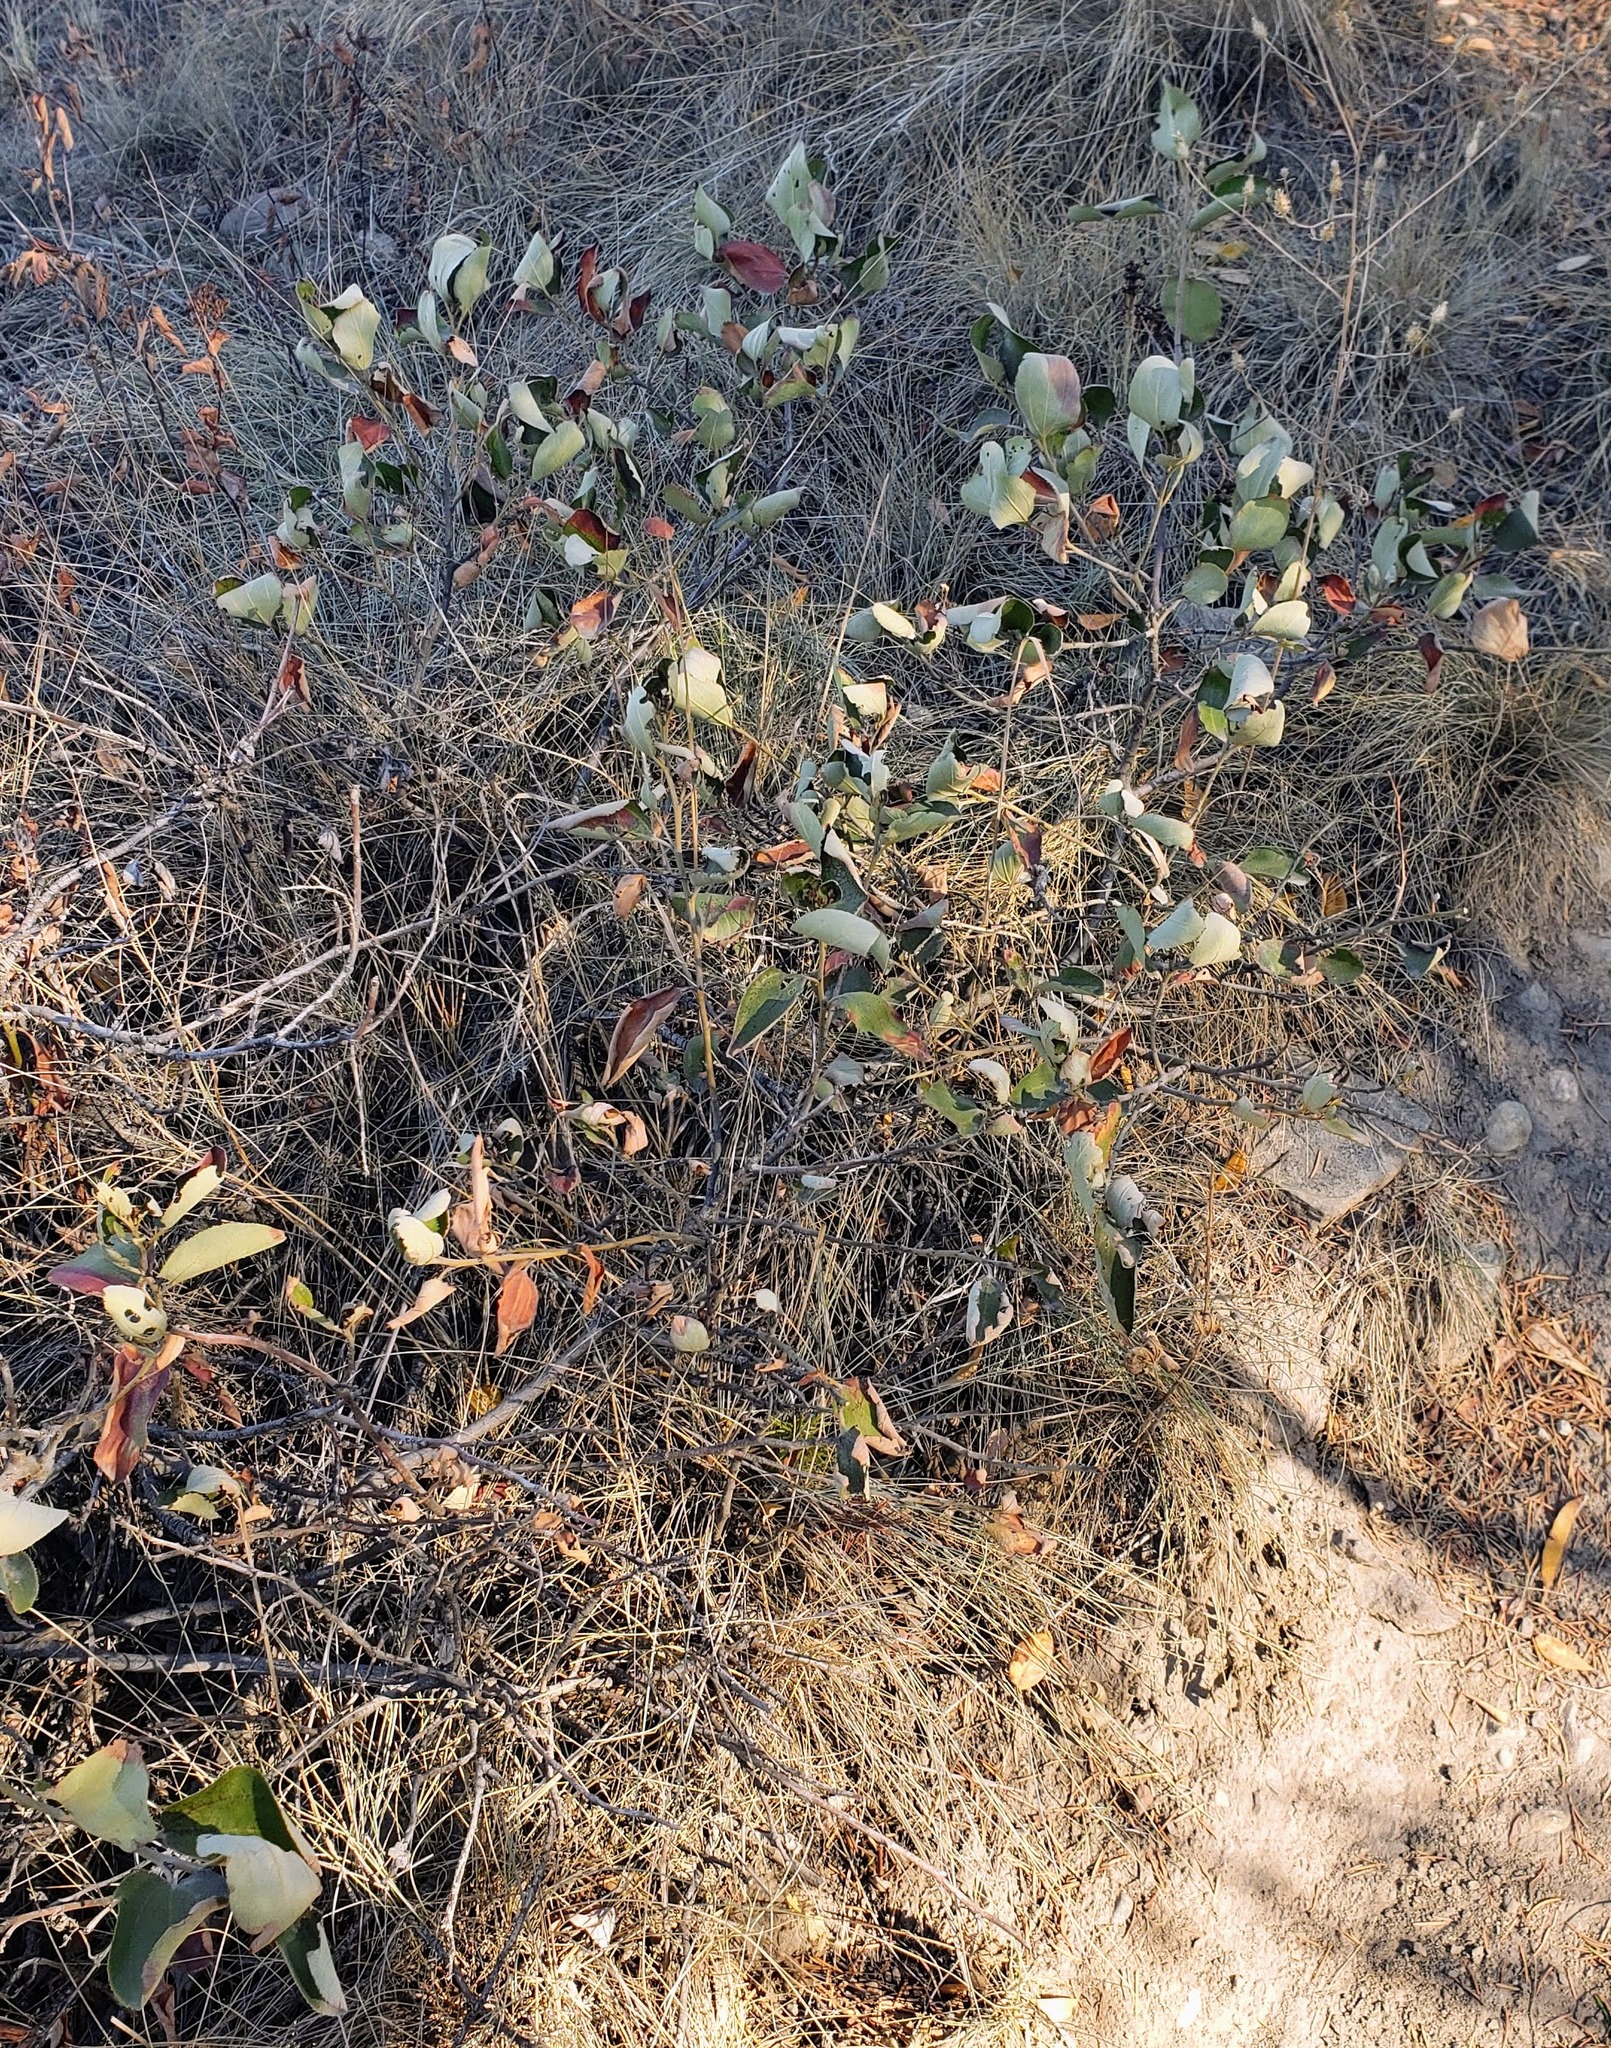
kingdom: Plantae
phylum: Tracheophyta
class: Magnoliopsida
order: Rosales
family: Rhamnaceae
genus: Ceanothus
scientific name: Ceanothus velutinus
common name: Snowbrush
